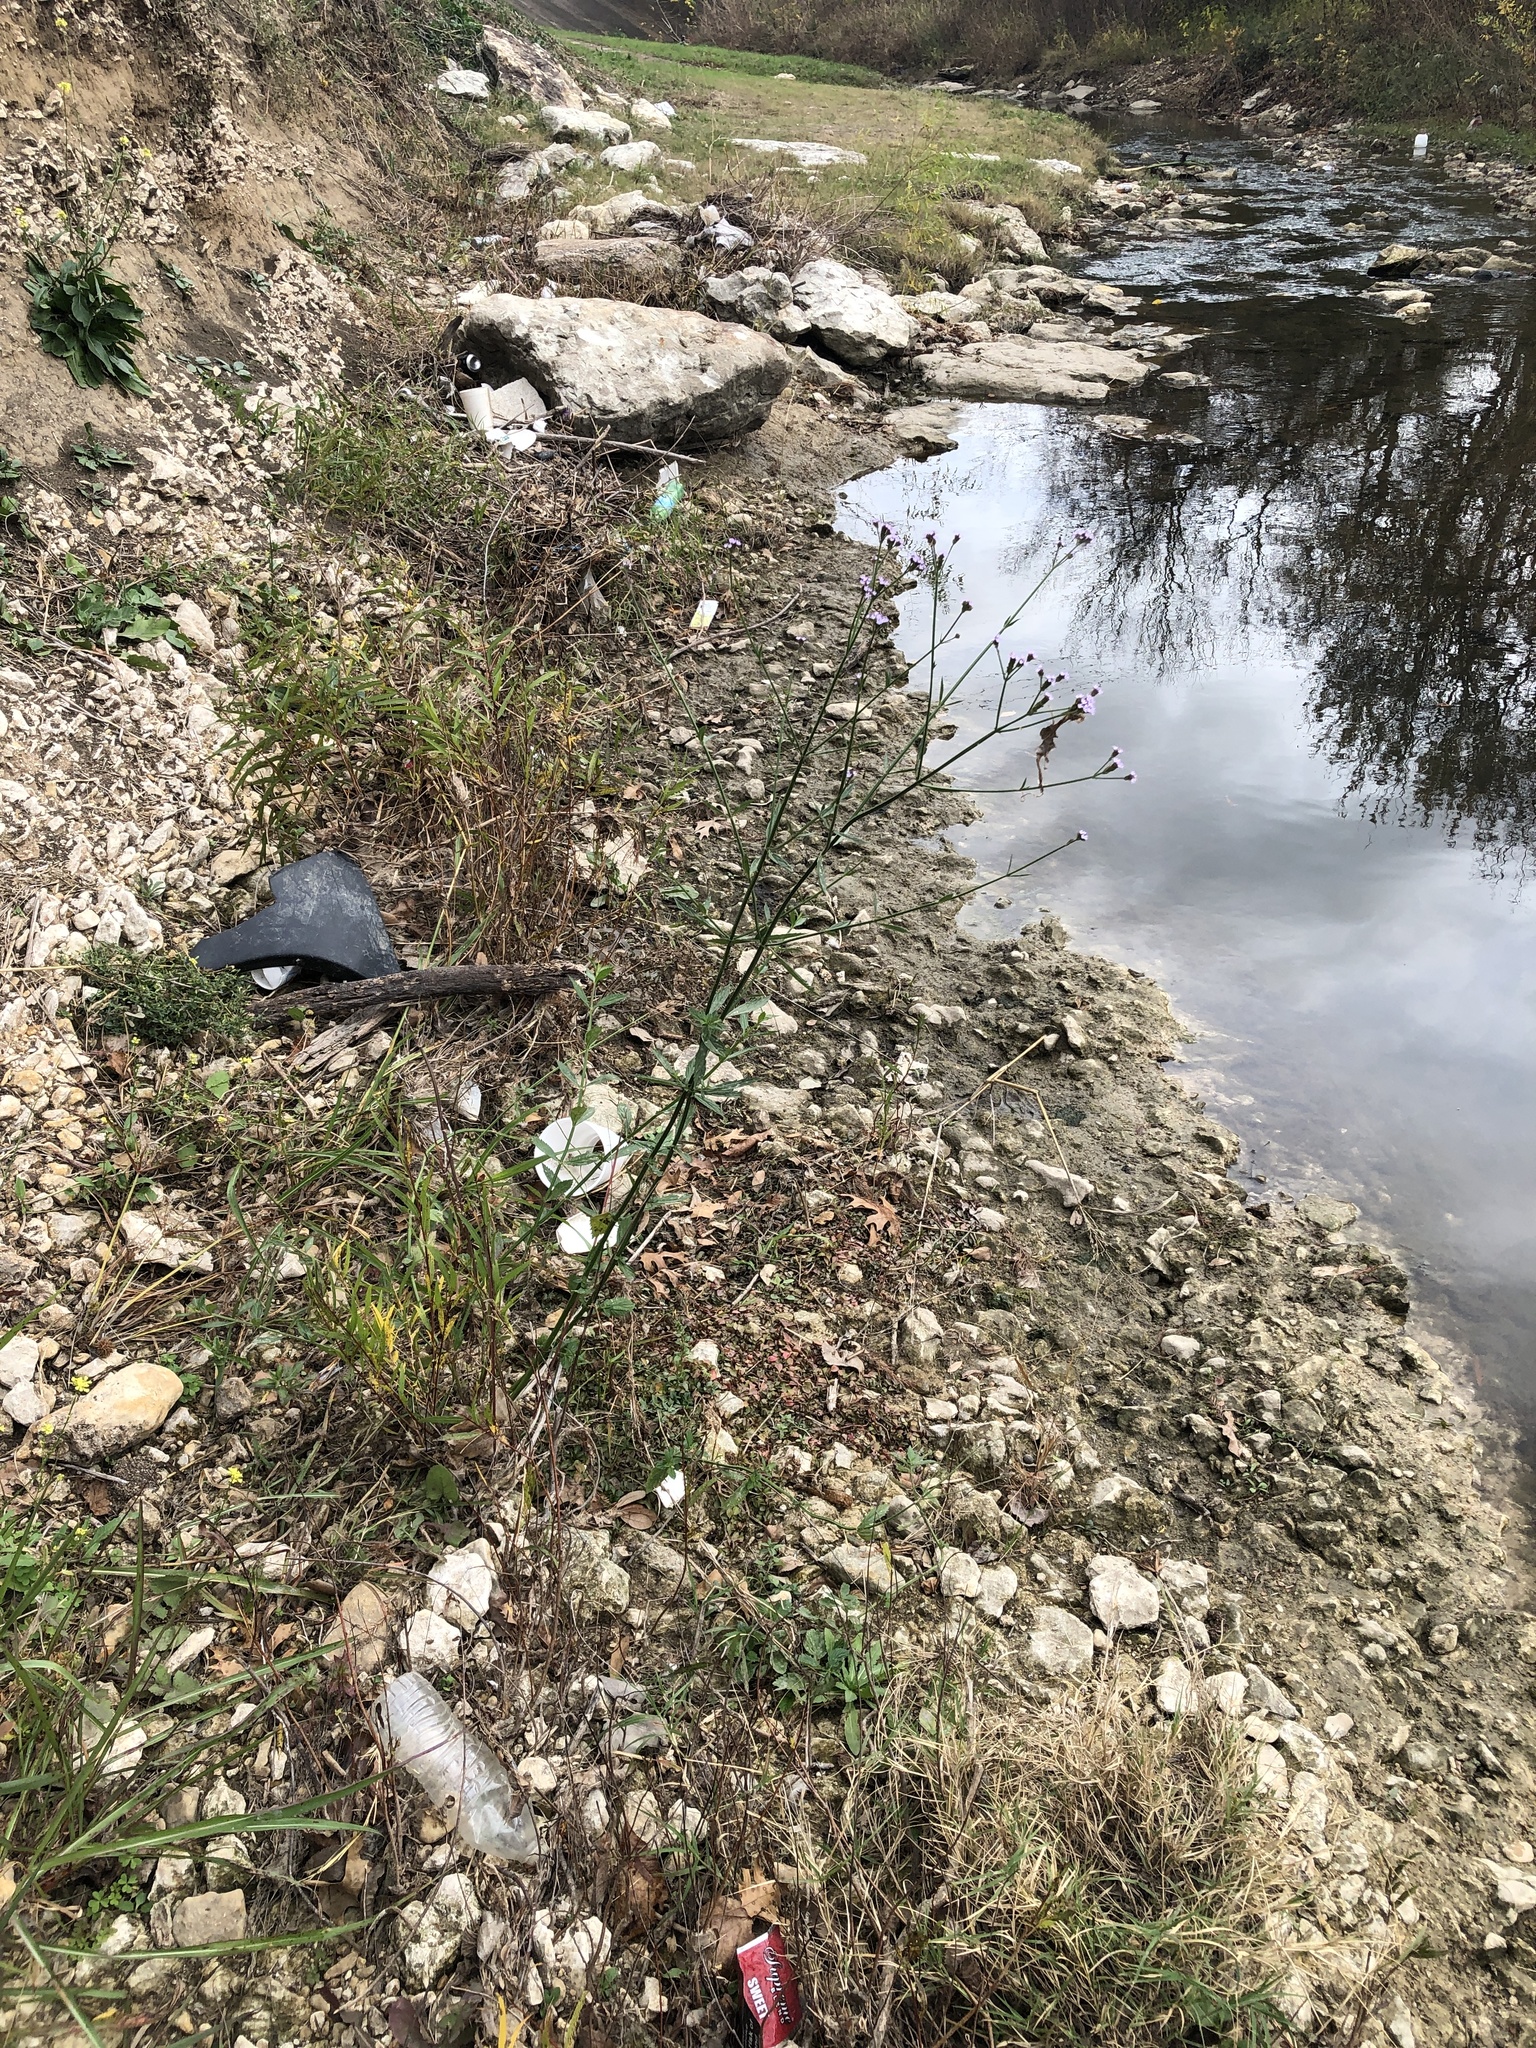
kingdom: Plantae
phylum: Tracheophyta
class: Magnoliopsida
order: Lamiales
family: Verbenaceae
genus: Verbena
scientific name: Verbena brasiliensis
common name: Brazilian vervain
